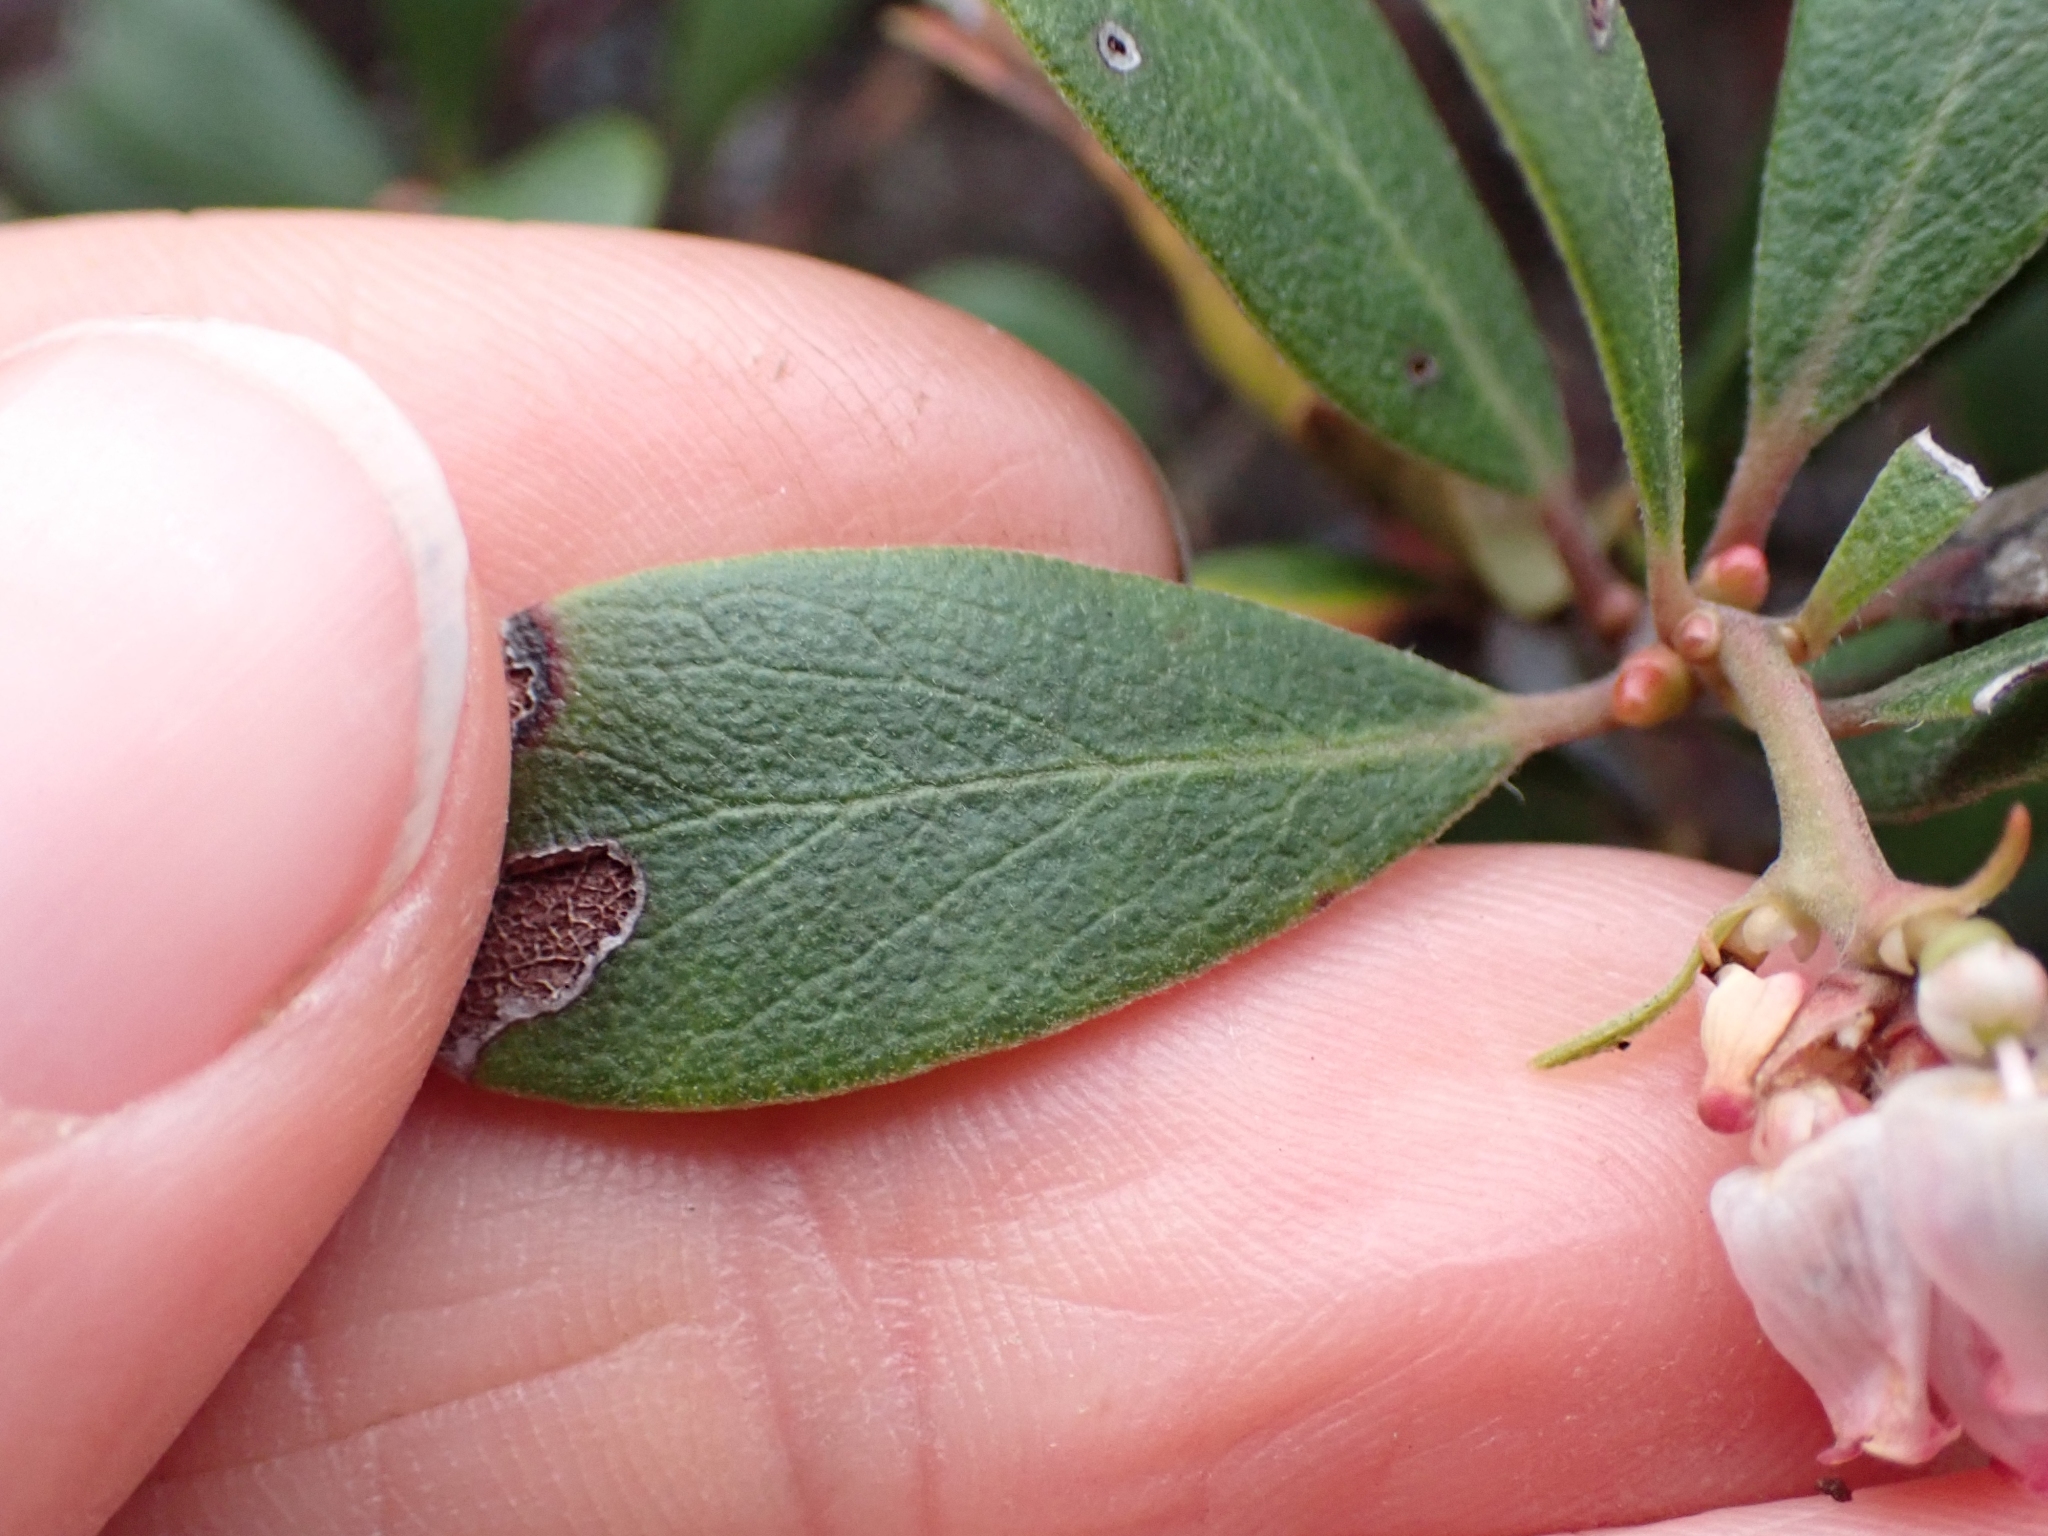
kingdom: Plantae
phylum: Tracheophyta
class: Magnoliopsida
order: Ericales
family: Ericaceae
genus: Arctostaphylos
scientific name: Arctostaphylos uva-ursi
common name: Bearberry
